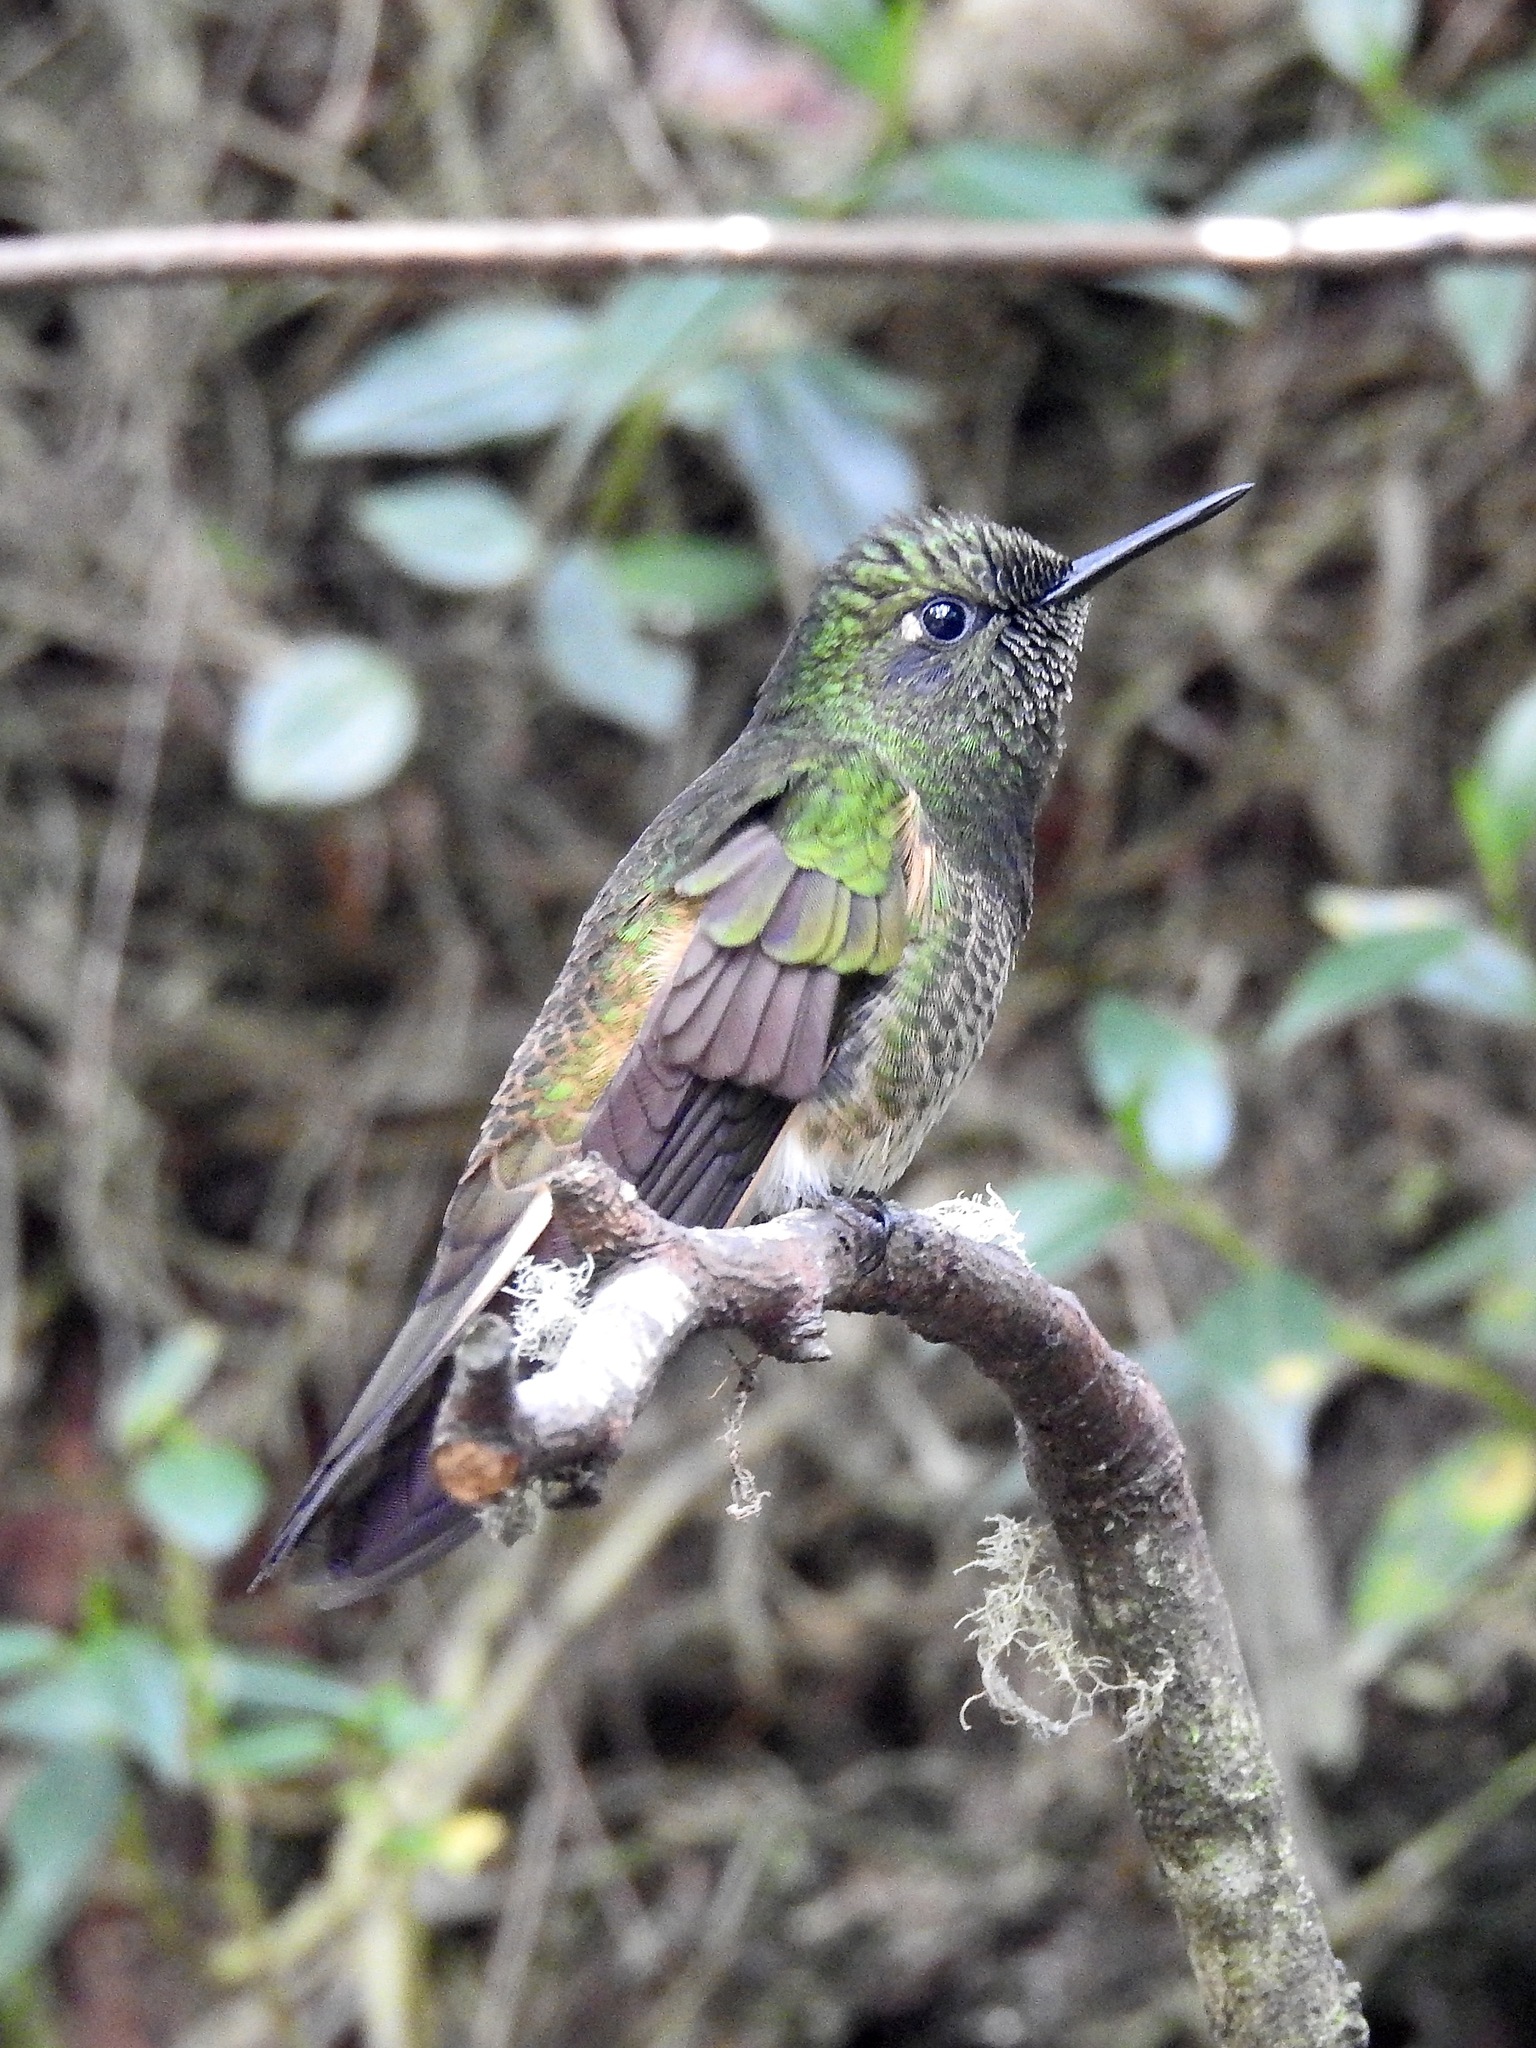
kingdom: Animalia
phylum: Chordata
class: Aves
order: Apodiformes
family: Trochilidae
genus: Boissonneaua
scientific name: Boissonneaua flavescens
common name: Buff-tailed coronet
